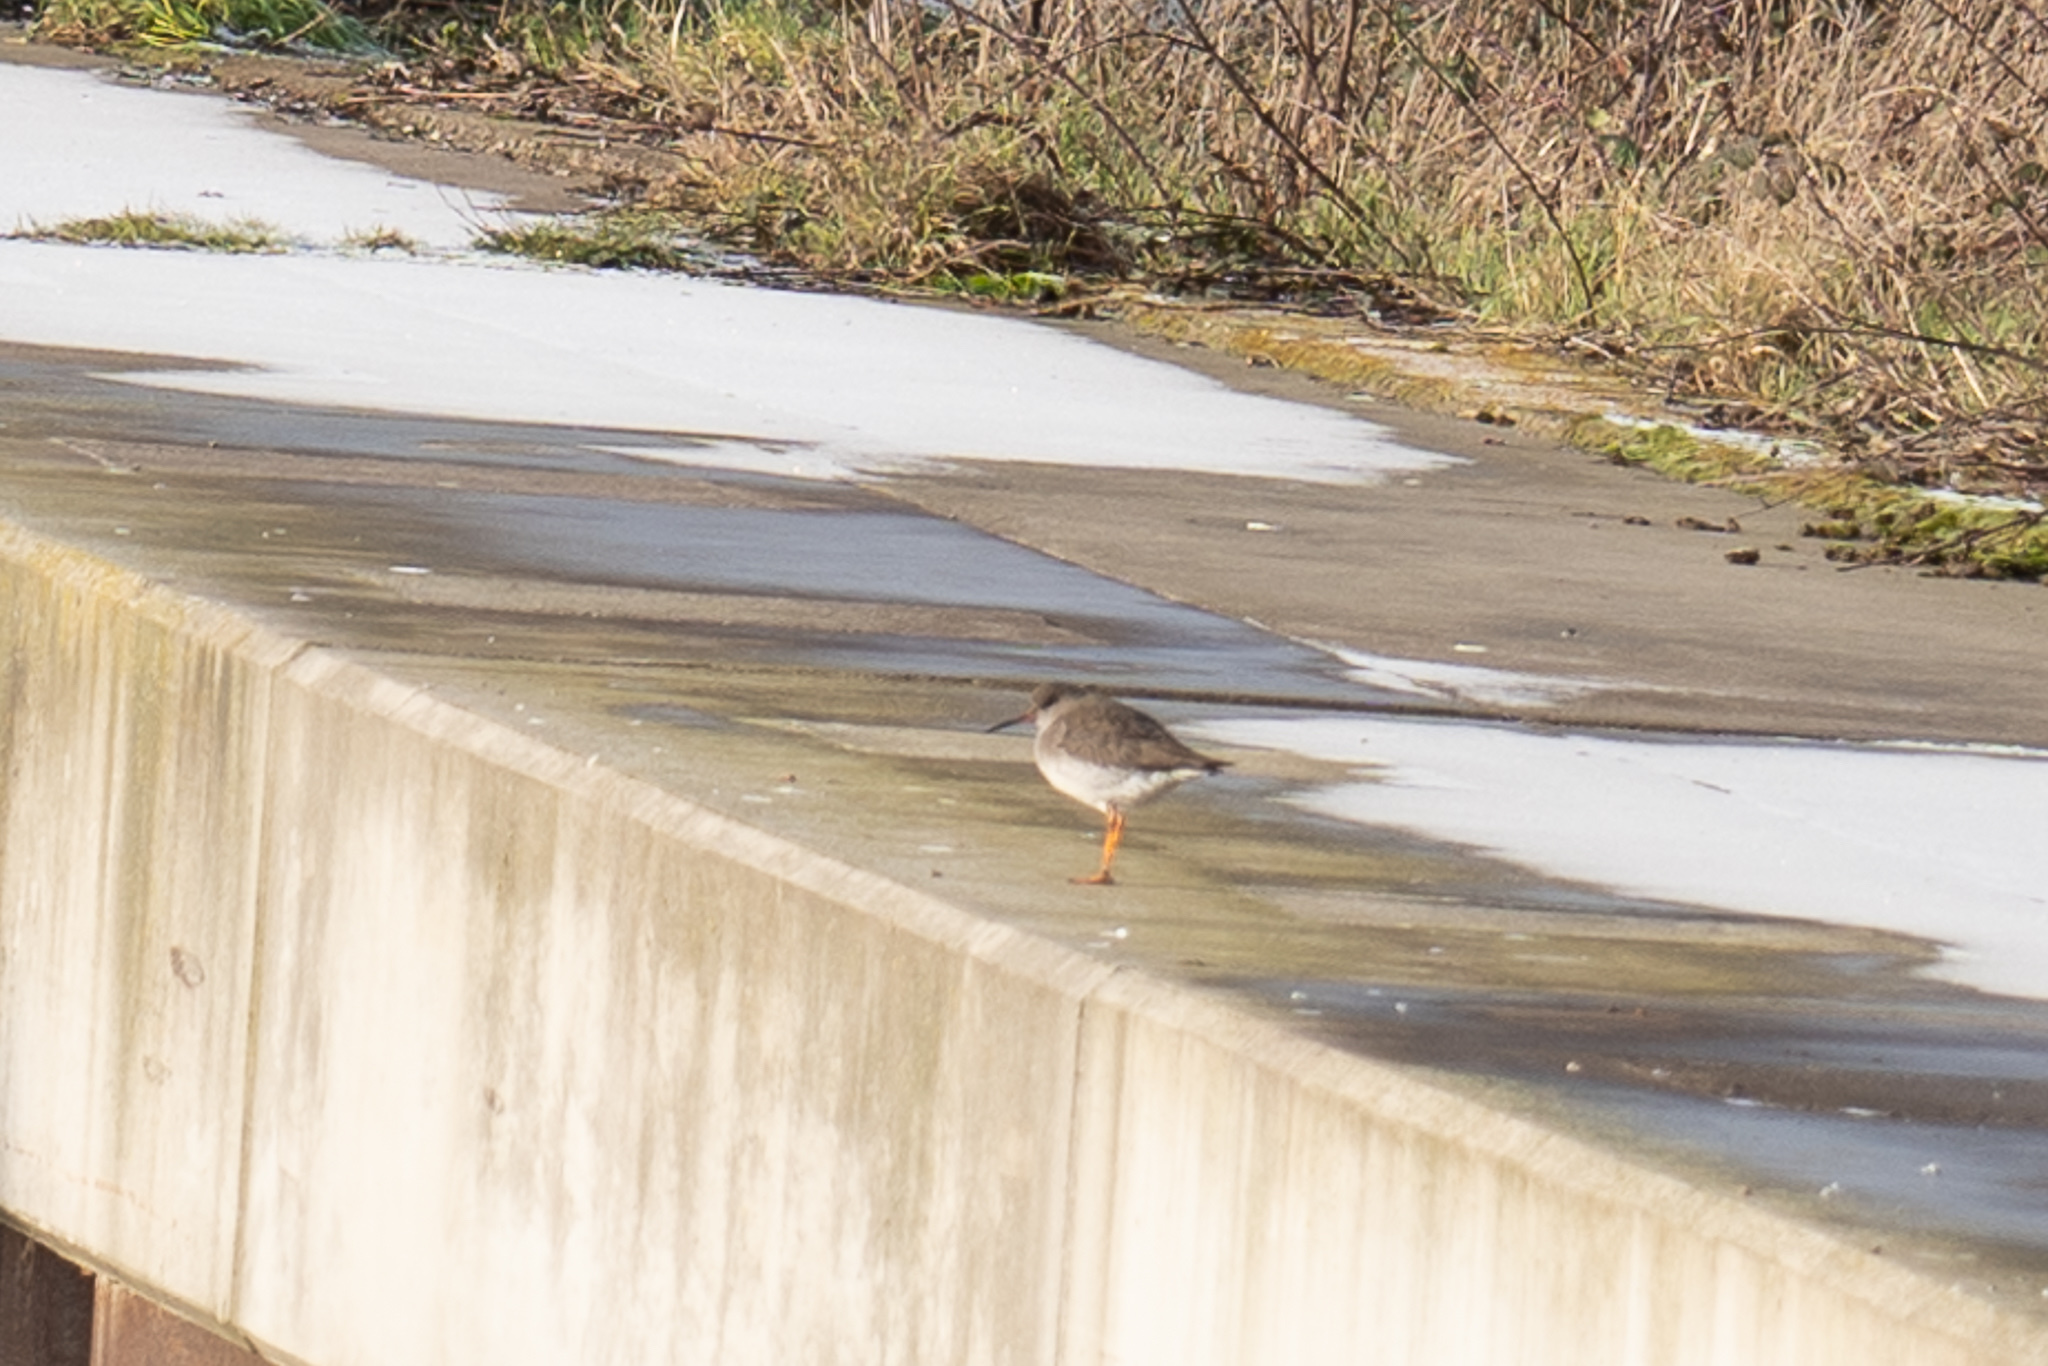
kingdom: Animalia
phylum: Chordata
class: Aves
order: Charadriiformes
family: Scolopacidae
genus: Tringa
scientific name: Tringa totanus
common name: Common redshank
